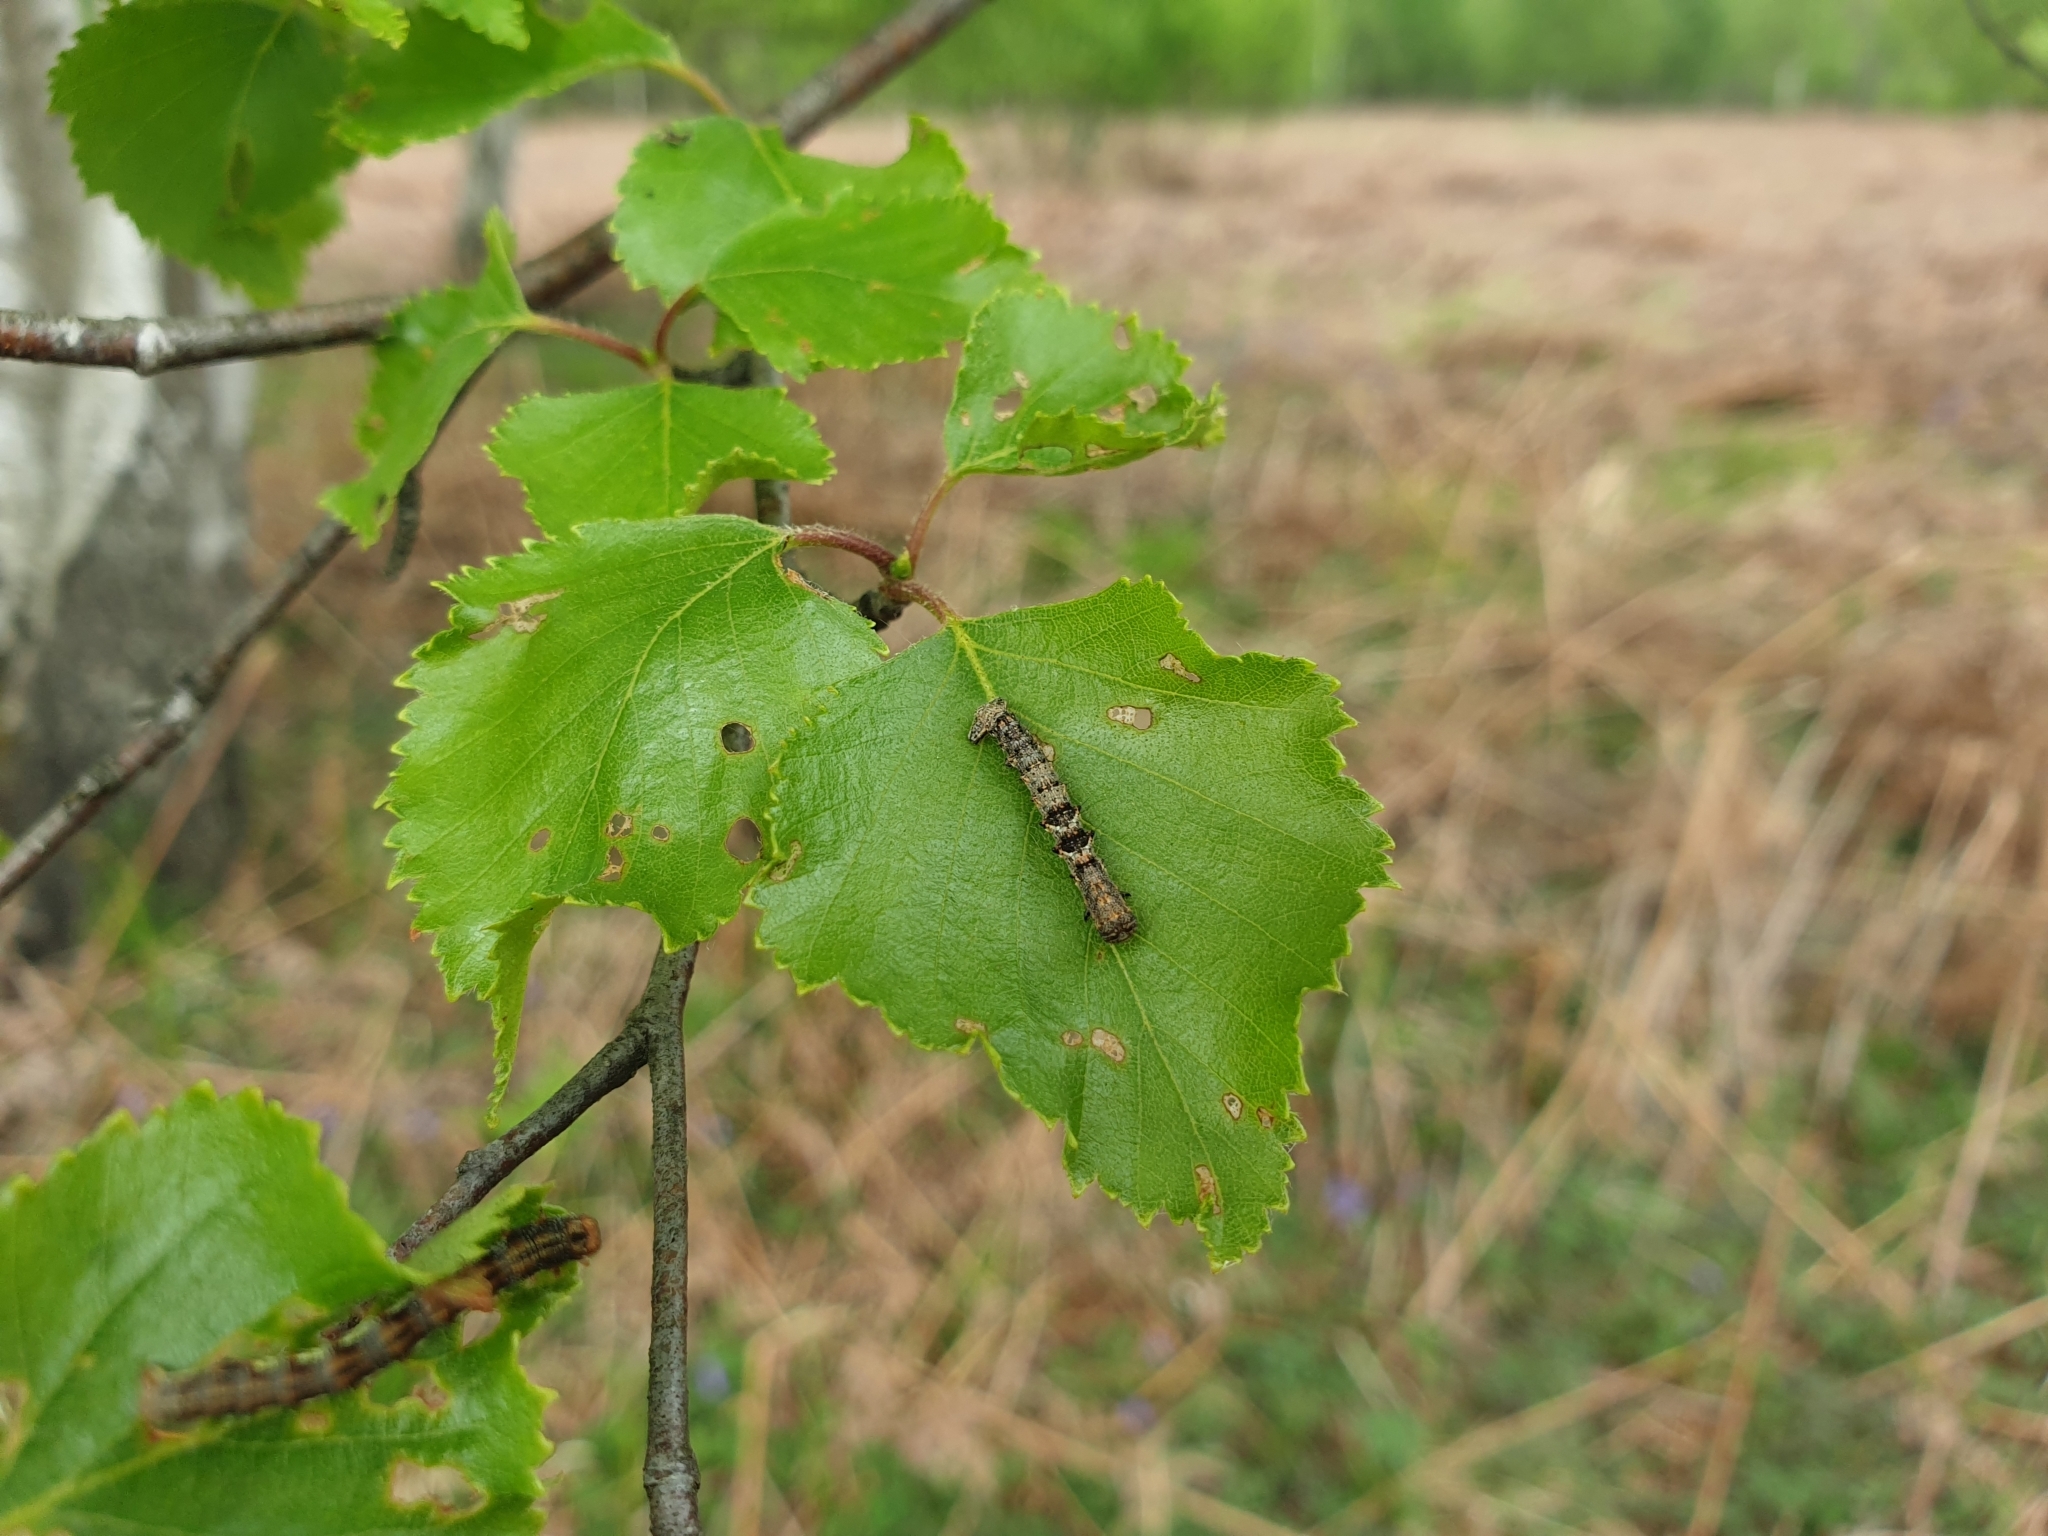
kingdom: Animalia
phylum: Arthropoda
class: Insecta
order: Lepidoptera
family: Geometridae
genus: Erannis
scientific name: Erannis defoliaria
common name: Mottled umber
